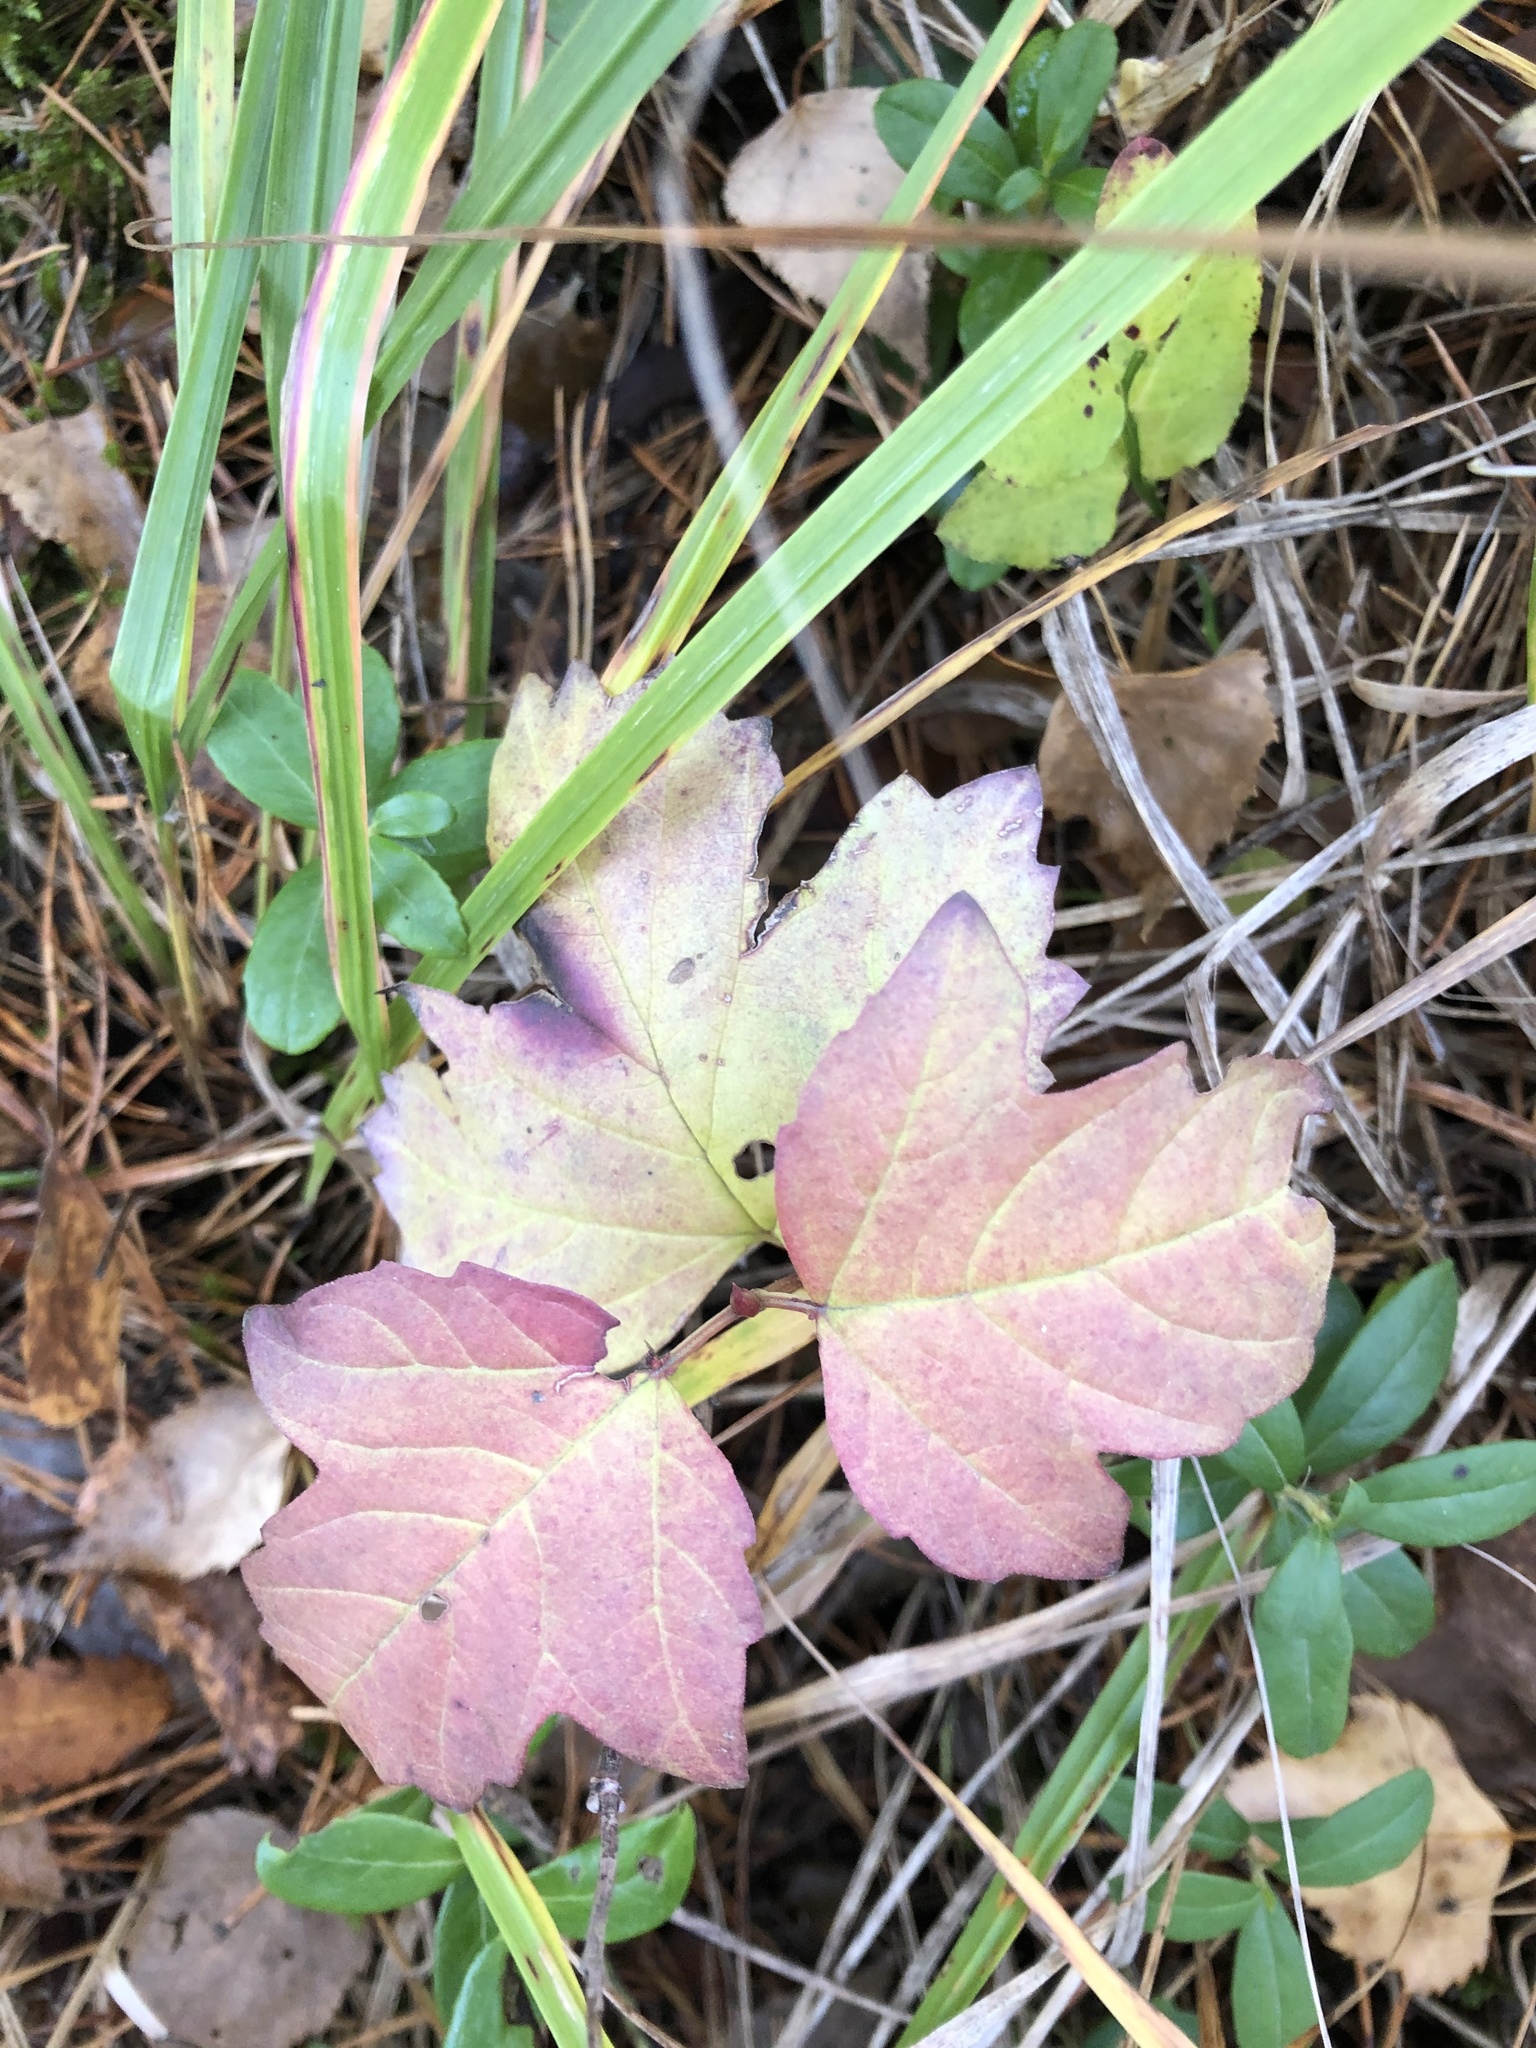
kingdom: Plantae
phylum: Tracheophyta
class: Magnoliopsida
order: Dipsacales
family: Viburnaceae
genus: Viburnum
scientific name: Viburnum opulus
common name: Guelder-rose
